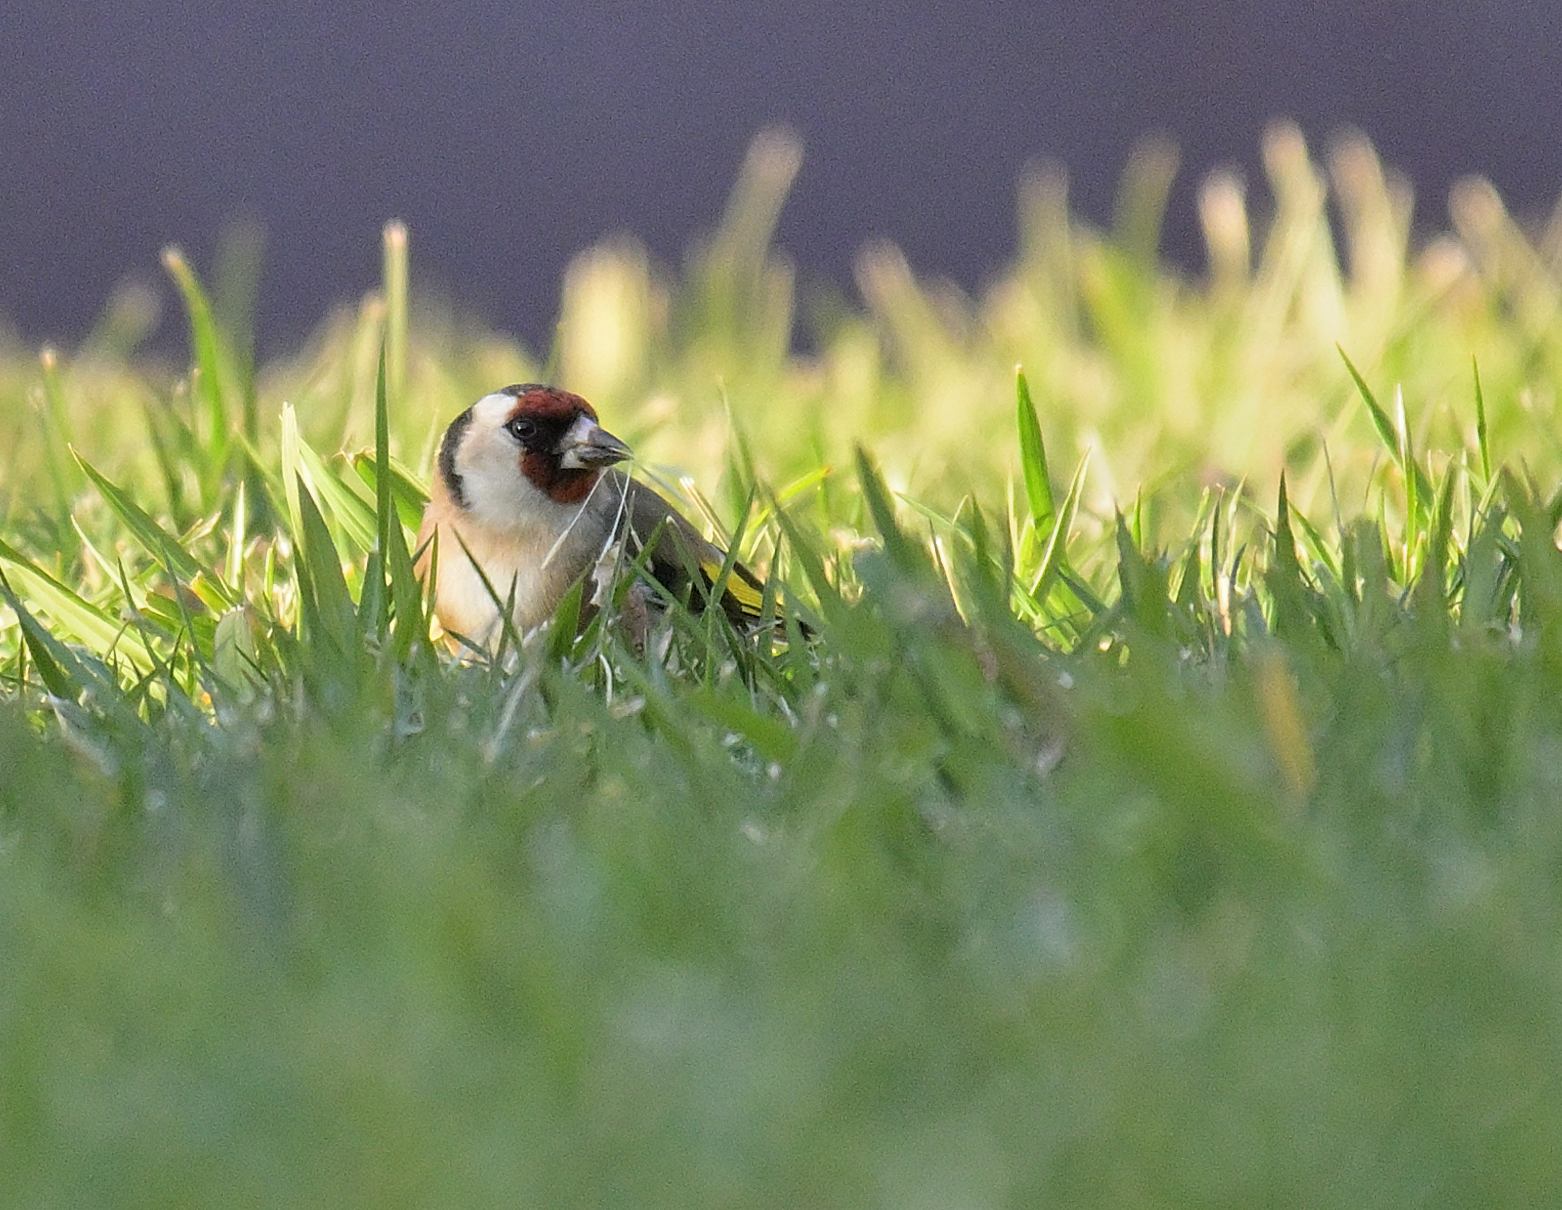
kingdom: Animalia
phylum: Chordata
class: Aves
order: Passeriformes
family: Fringillidae
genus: Carduelis
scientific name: Carduelis carduelis
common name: European goldfinch
